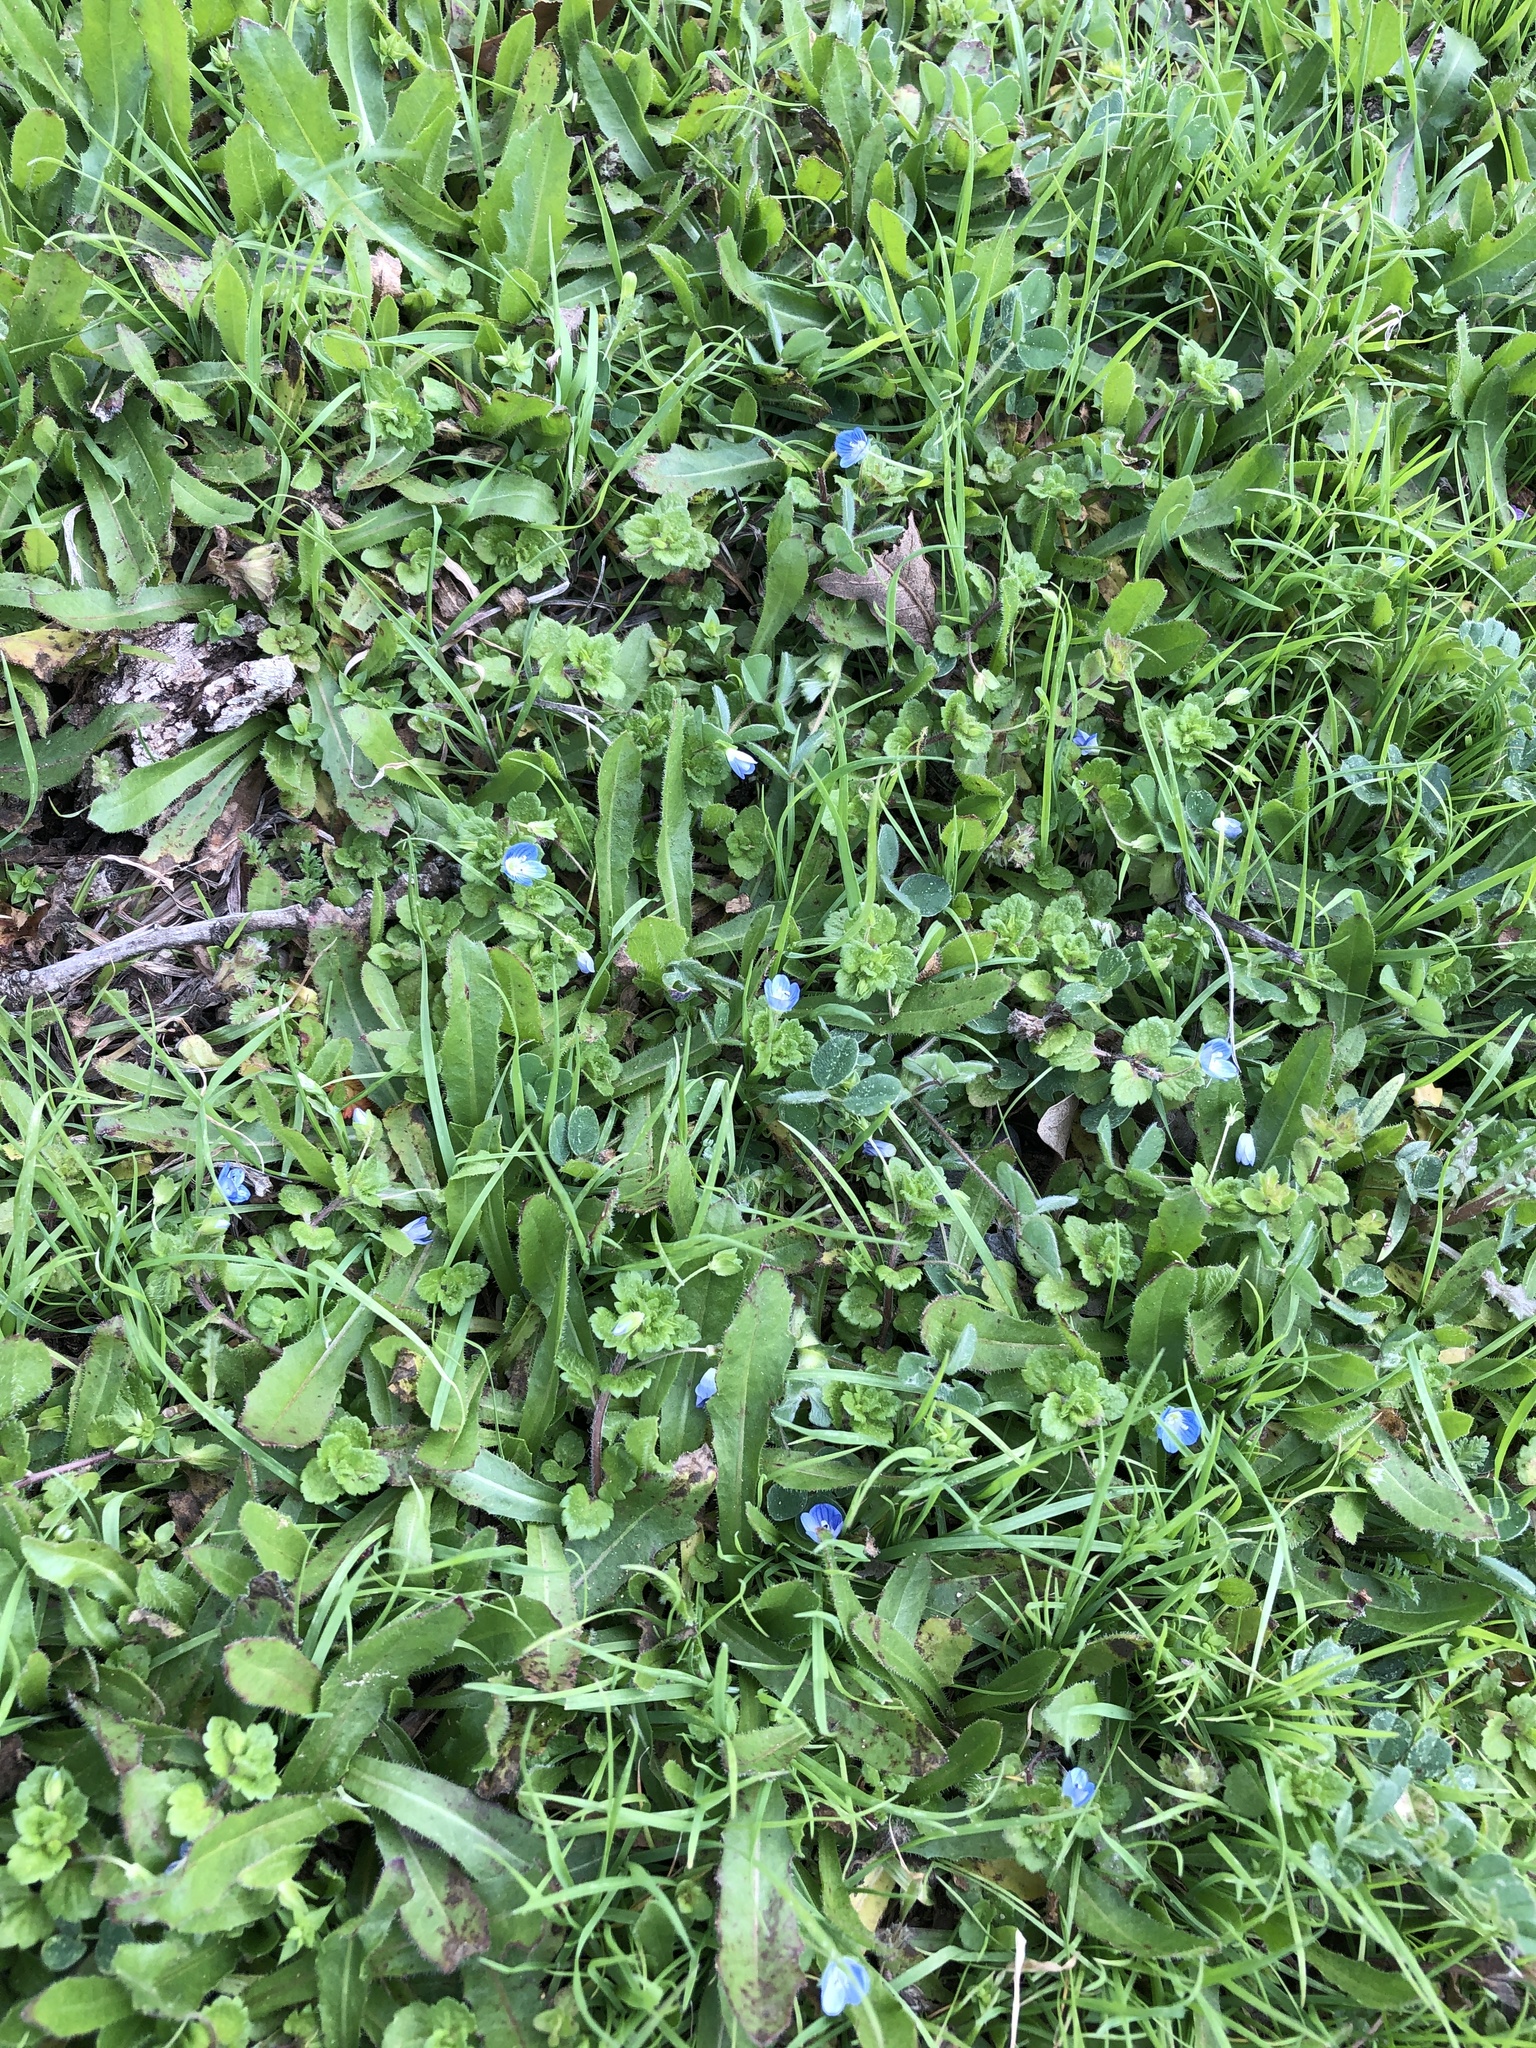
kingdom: Plantae
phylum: Tracheophyta
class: Magnoliopsida
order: Lamiales
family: Plantaginaceae
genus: Veronica
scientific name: Veronica persica
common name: Common field-speedwell
